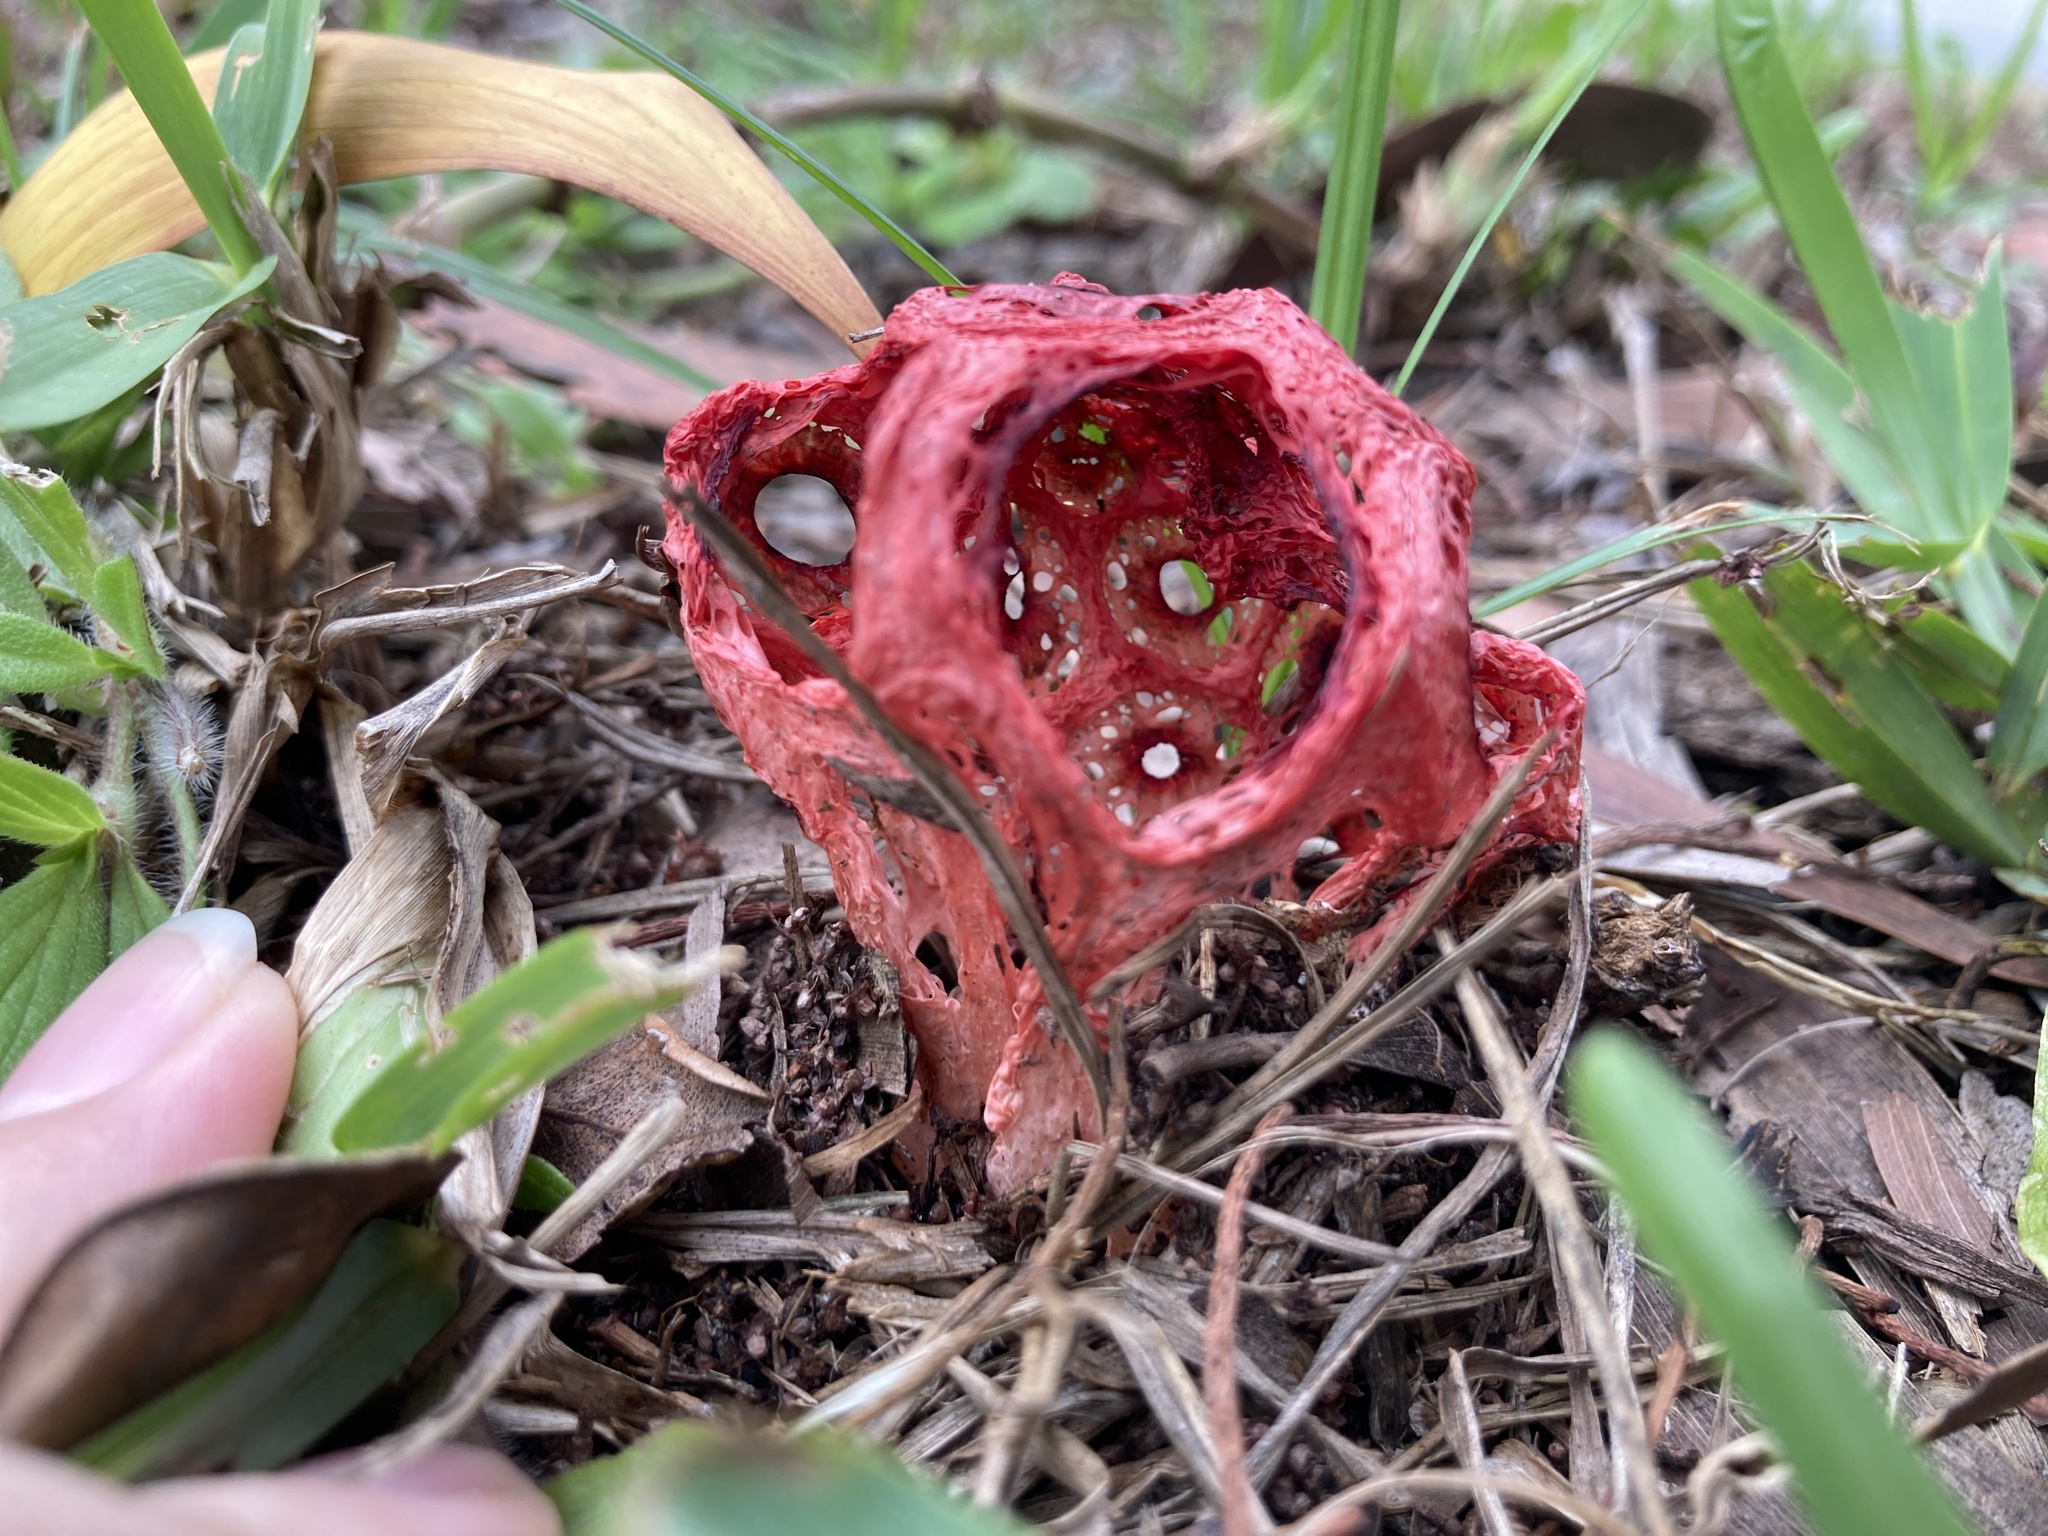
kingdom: Fungi
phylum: Basidiomycota
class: Agaricomycetes
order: Phallales
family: Phallaceae
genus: Clathrus
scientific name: Clathrus crispatus
